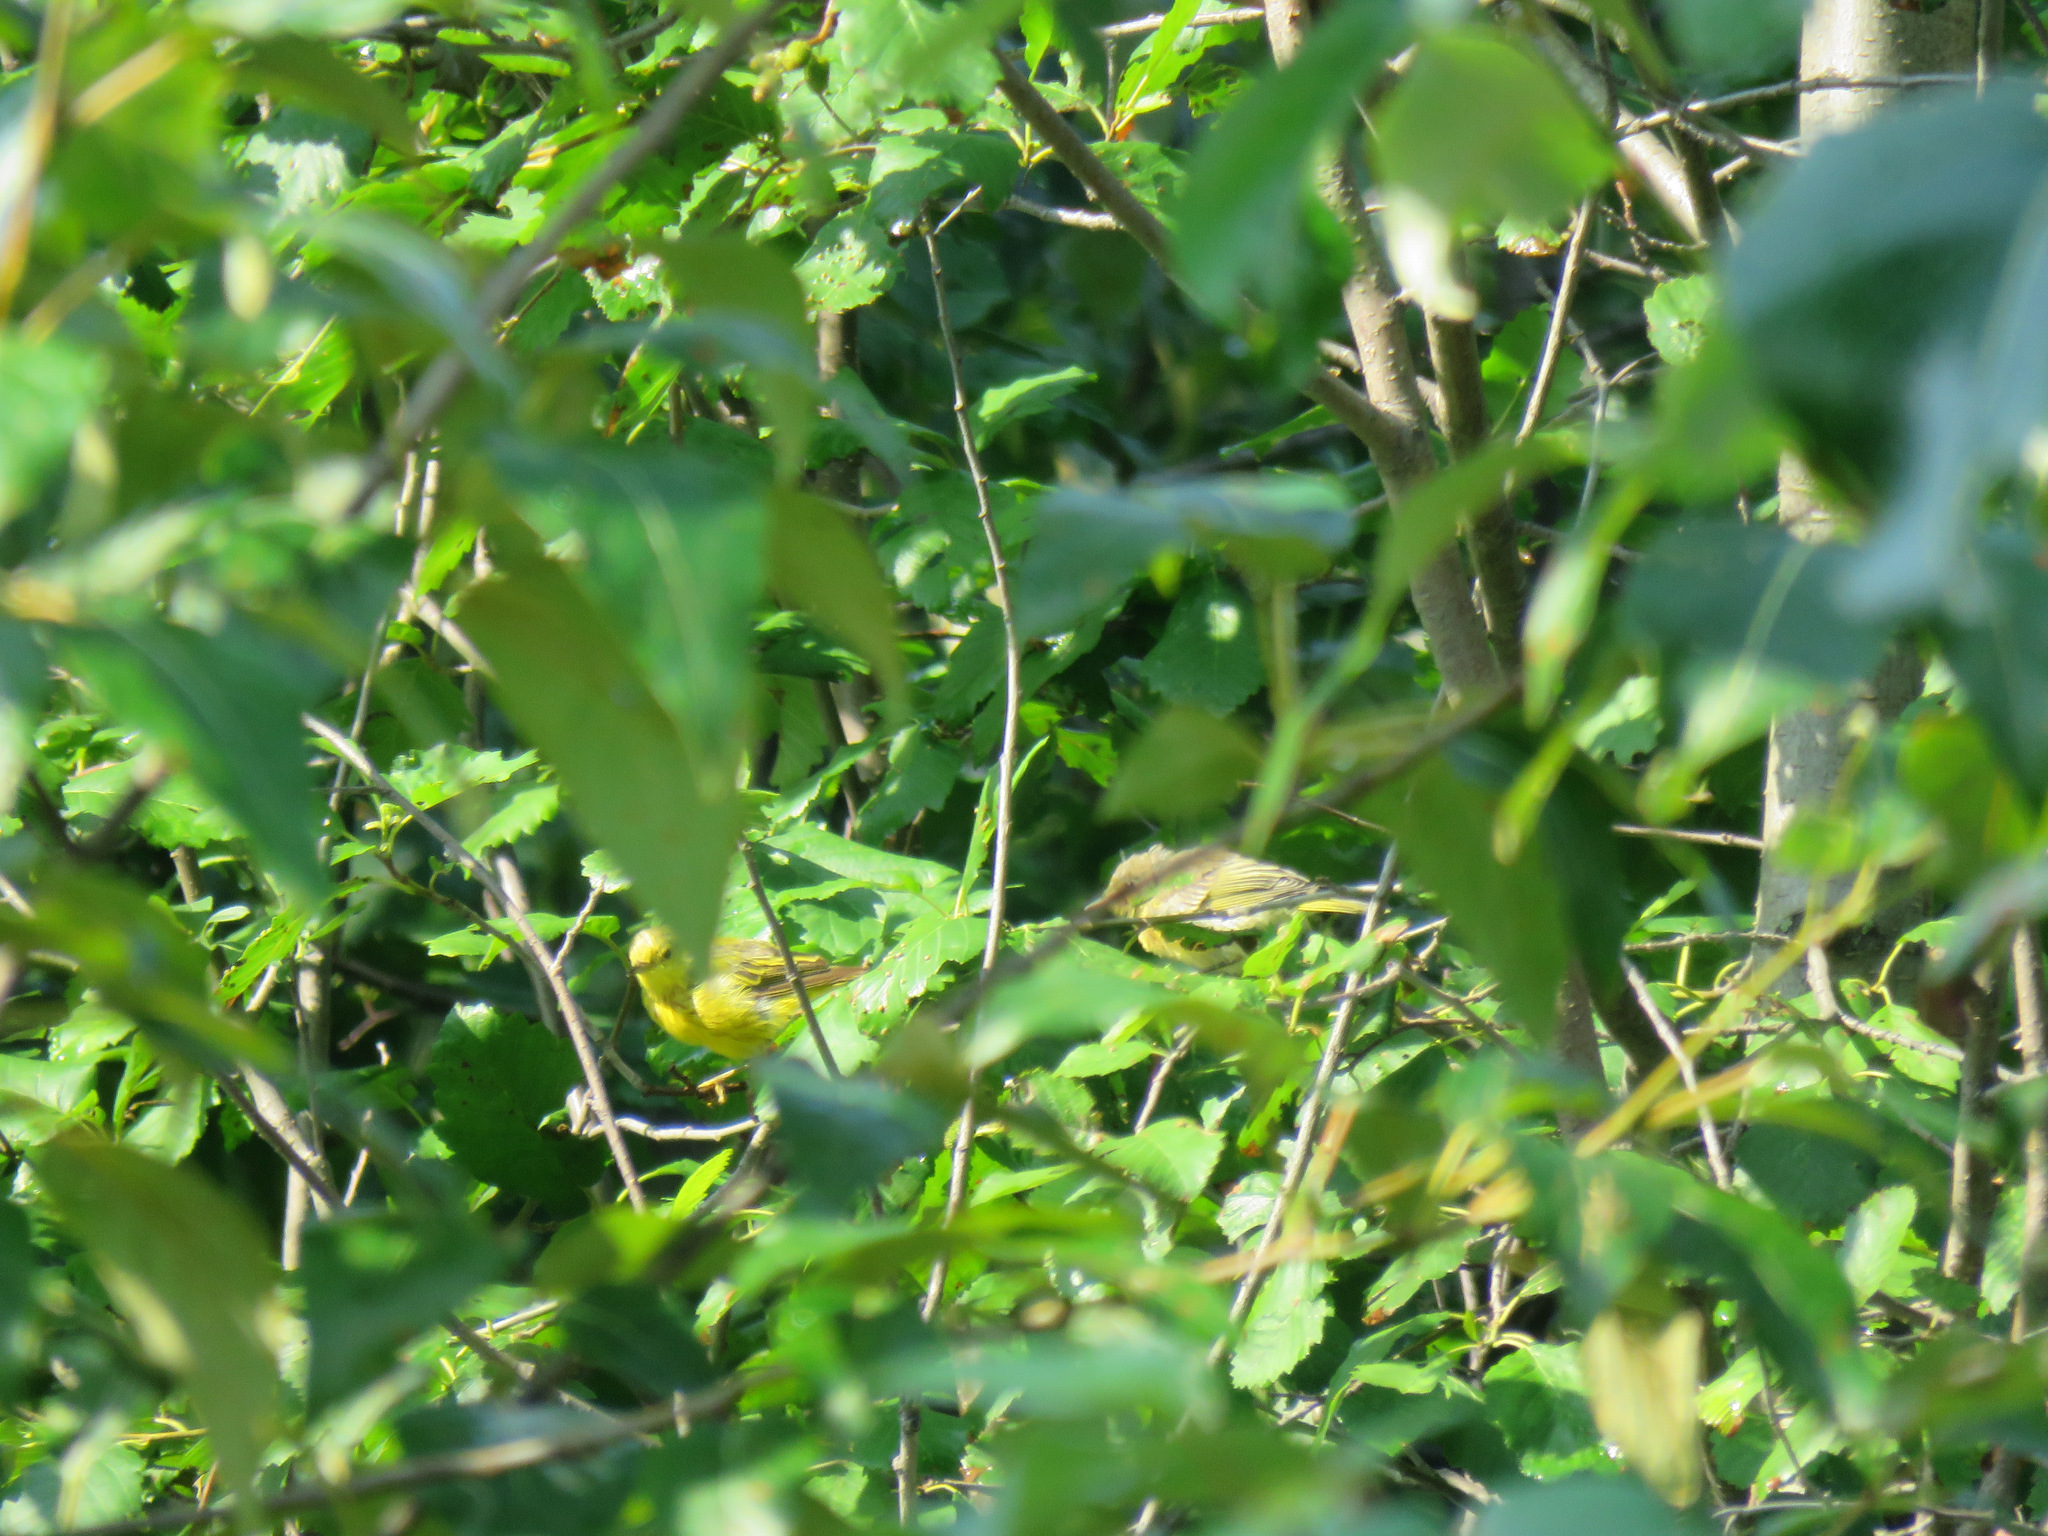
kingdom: Animalia
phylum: Chordata
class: Aves
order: Passeriformes
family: Parulidae
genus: Setophaga
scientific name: Setophaga petechia
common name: Yellow warbler
